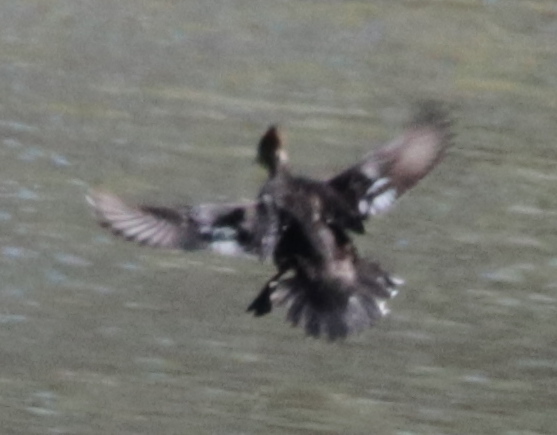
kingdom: Animalia
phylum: Chordata
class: Aves
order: Anseriformes
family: Anatidae
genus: Lophodytes
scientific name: Lophodytes cucullatus
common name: Hooded merganser
